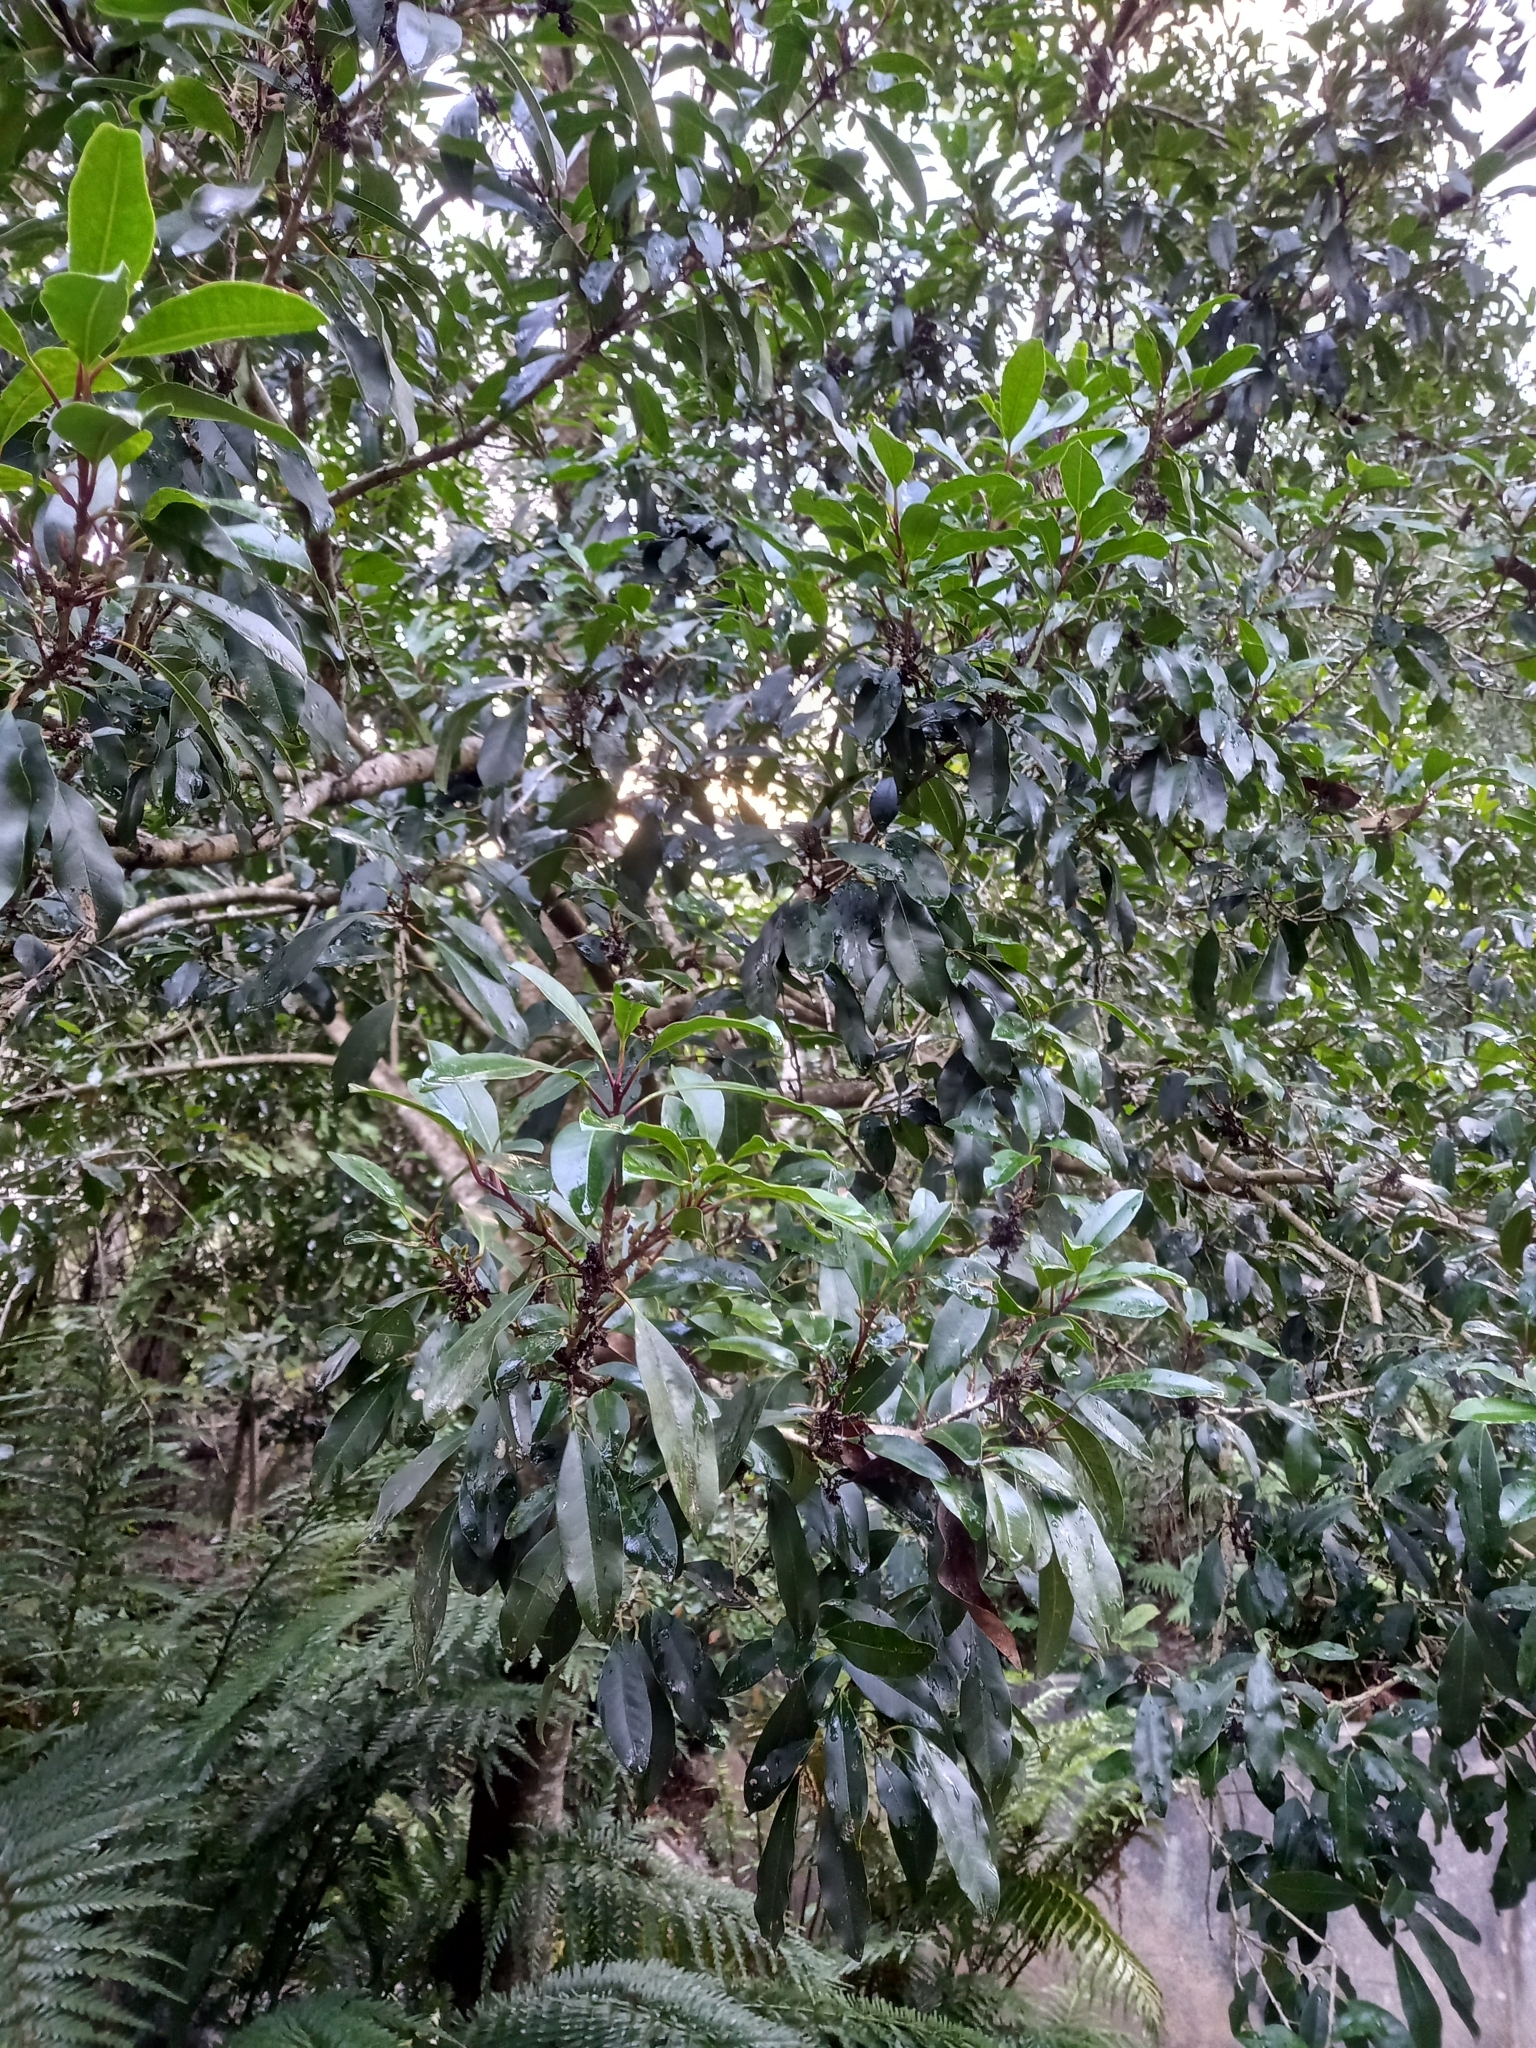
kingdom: Plantae
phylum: Tracheophyta
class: Magnoliopsida
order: Aquifoliales
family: Aquifoliaceae
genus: Ilex
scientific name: Ilex mitis
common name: African holly
